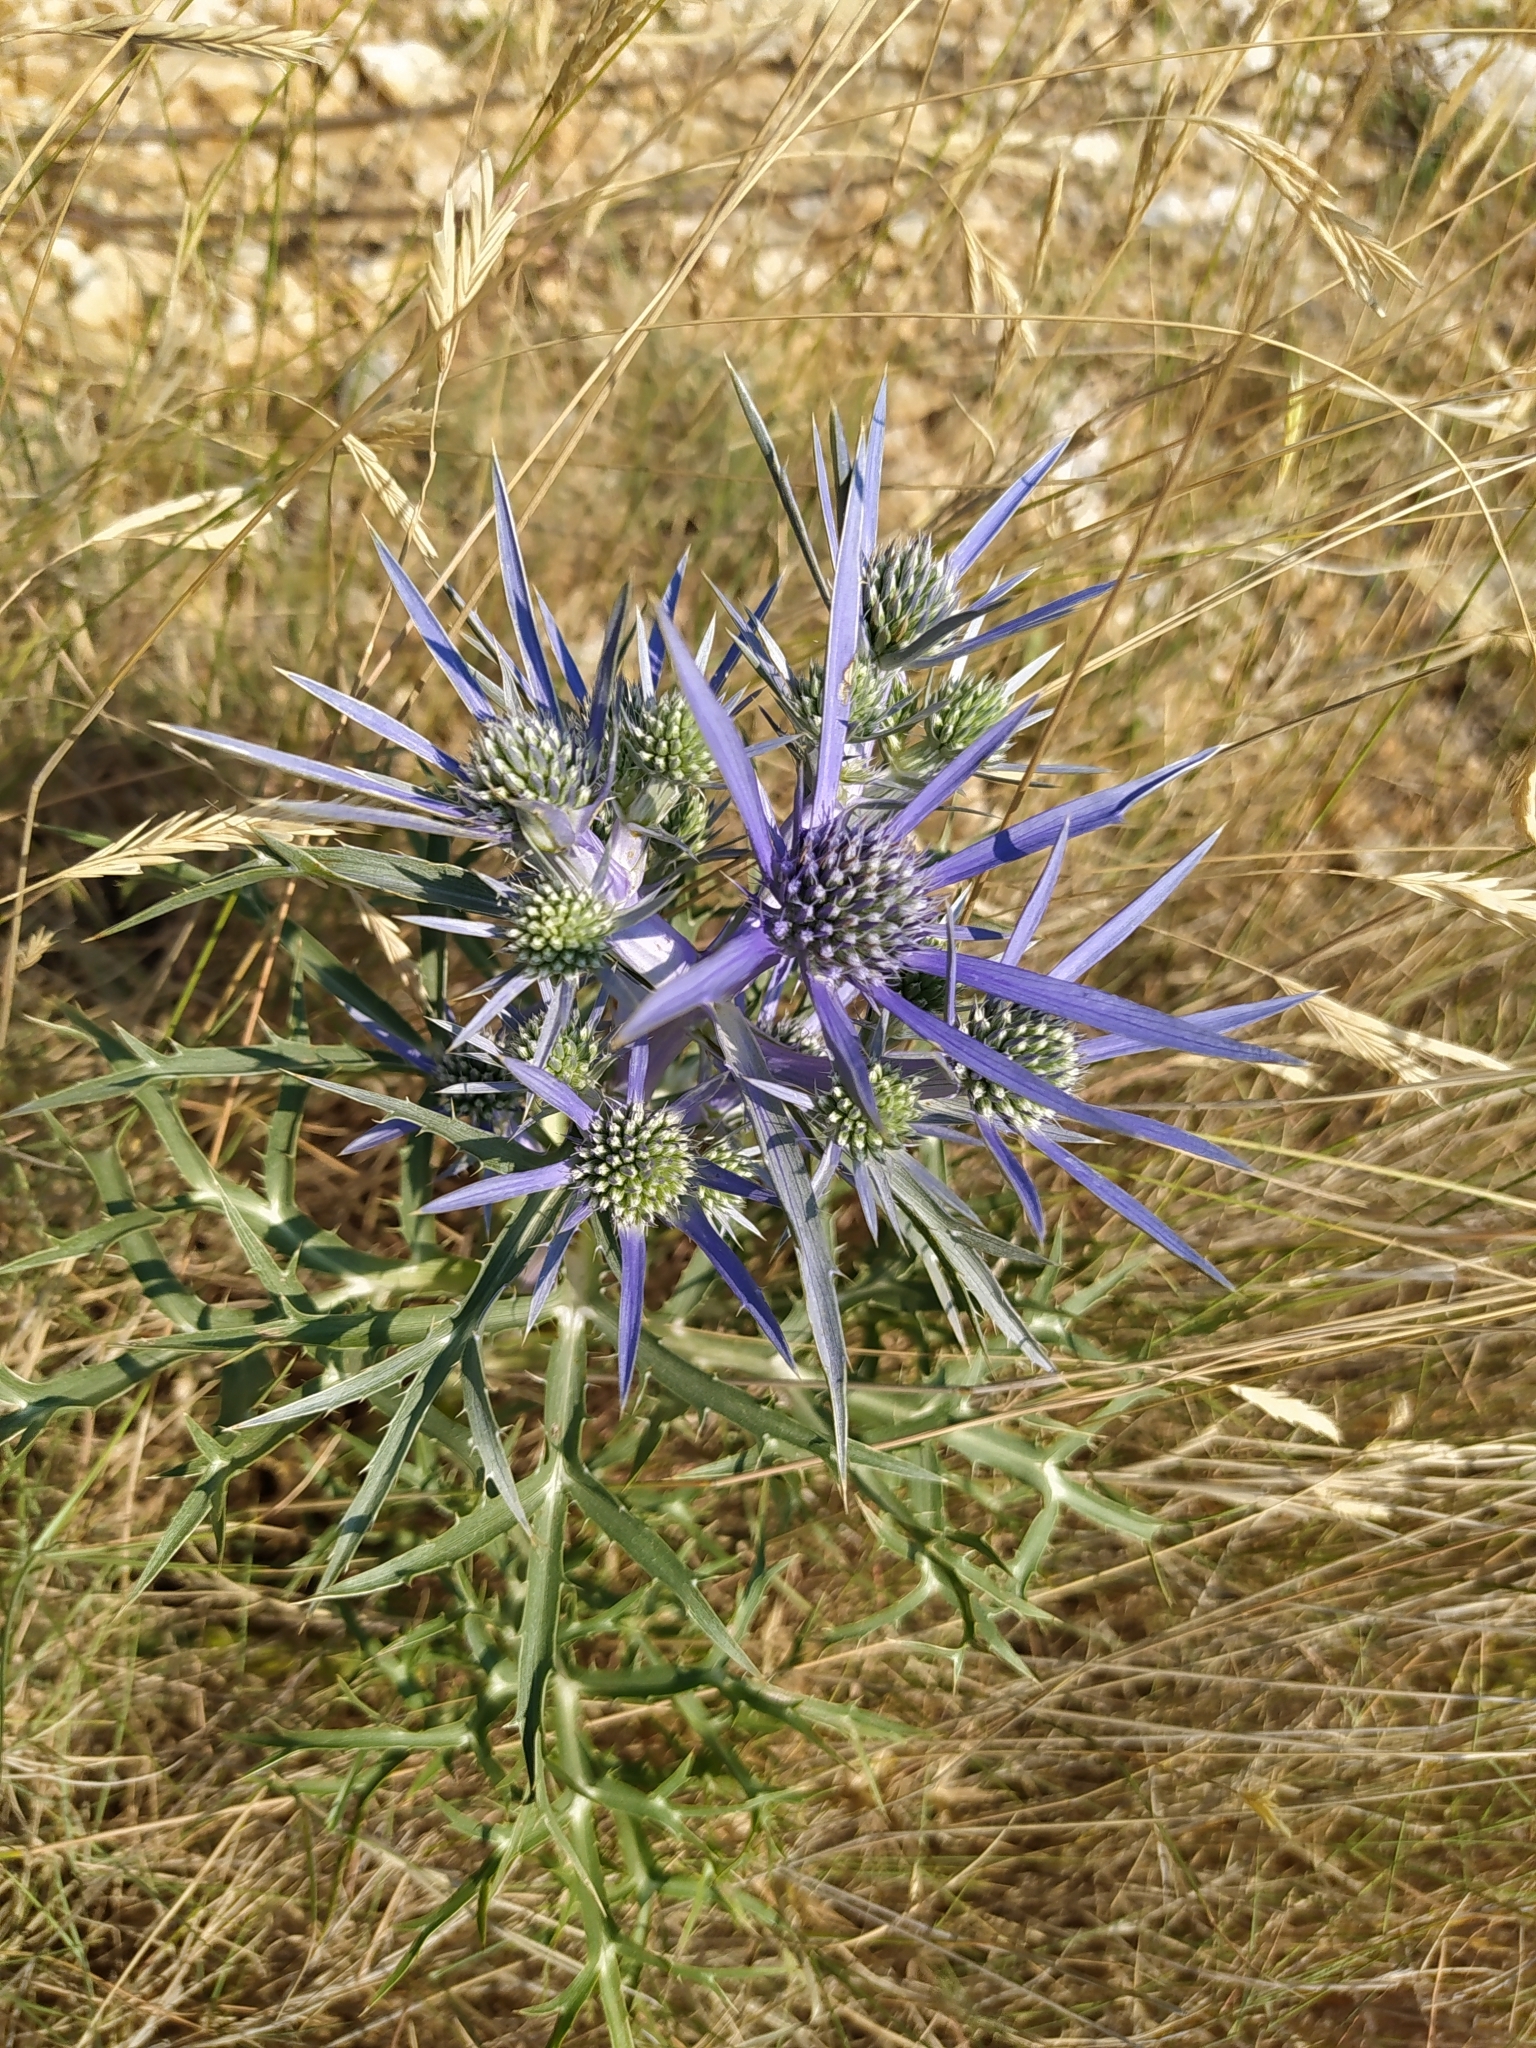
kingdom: Plantae
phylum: Tracheophyta
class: Magnoliopsida
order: Apiales
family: Apiaceae
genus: Eryngium
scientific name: Eryngium amethystinum
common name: Amethyst eryngo
